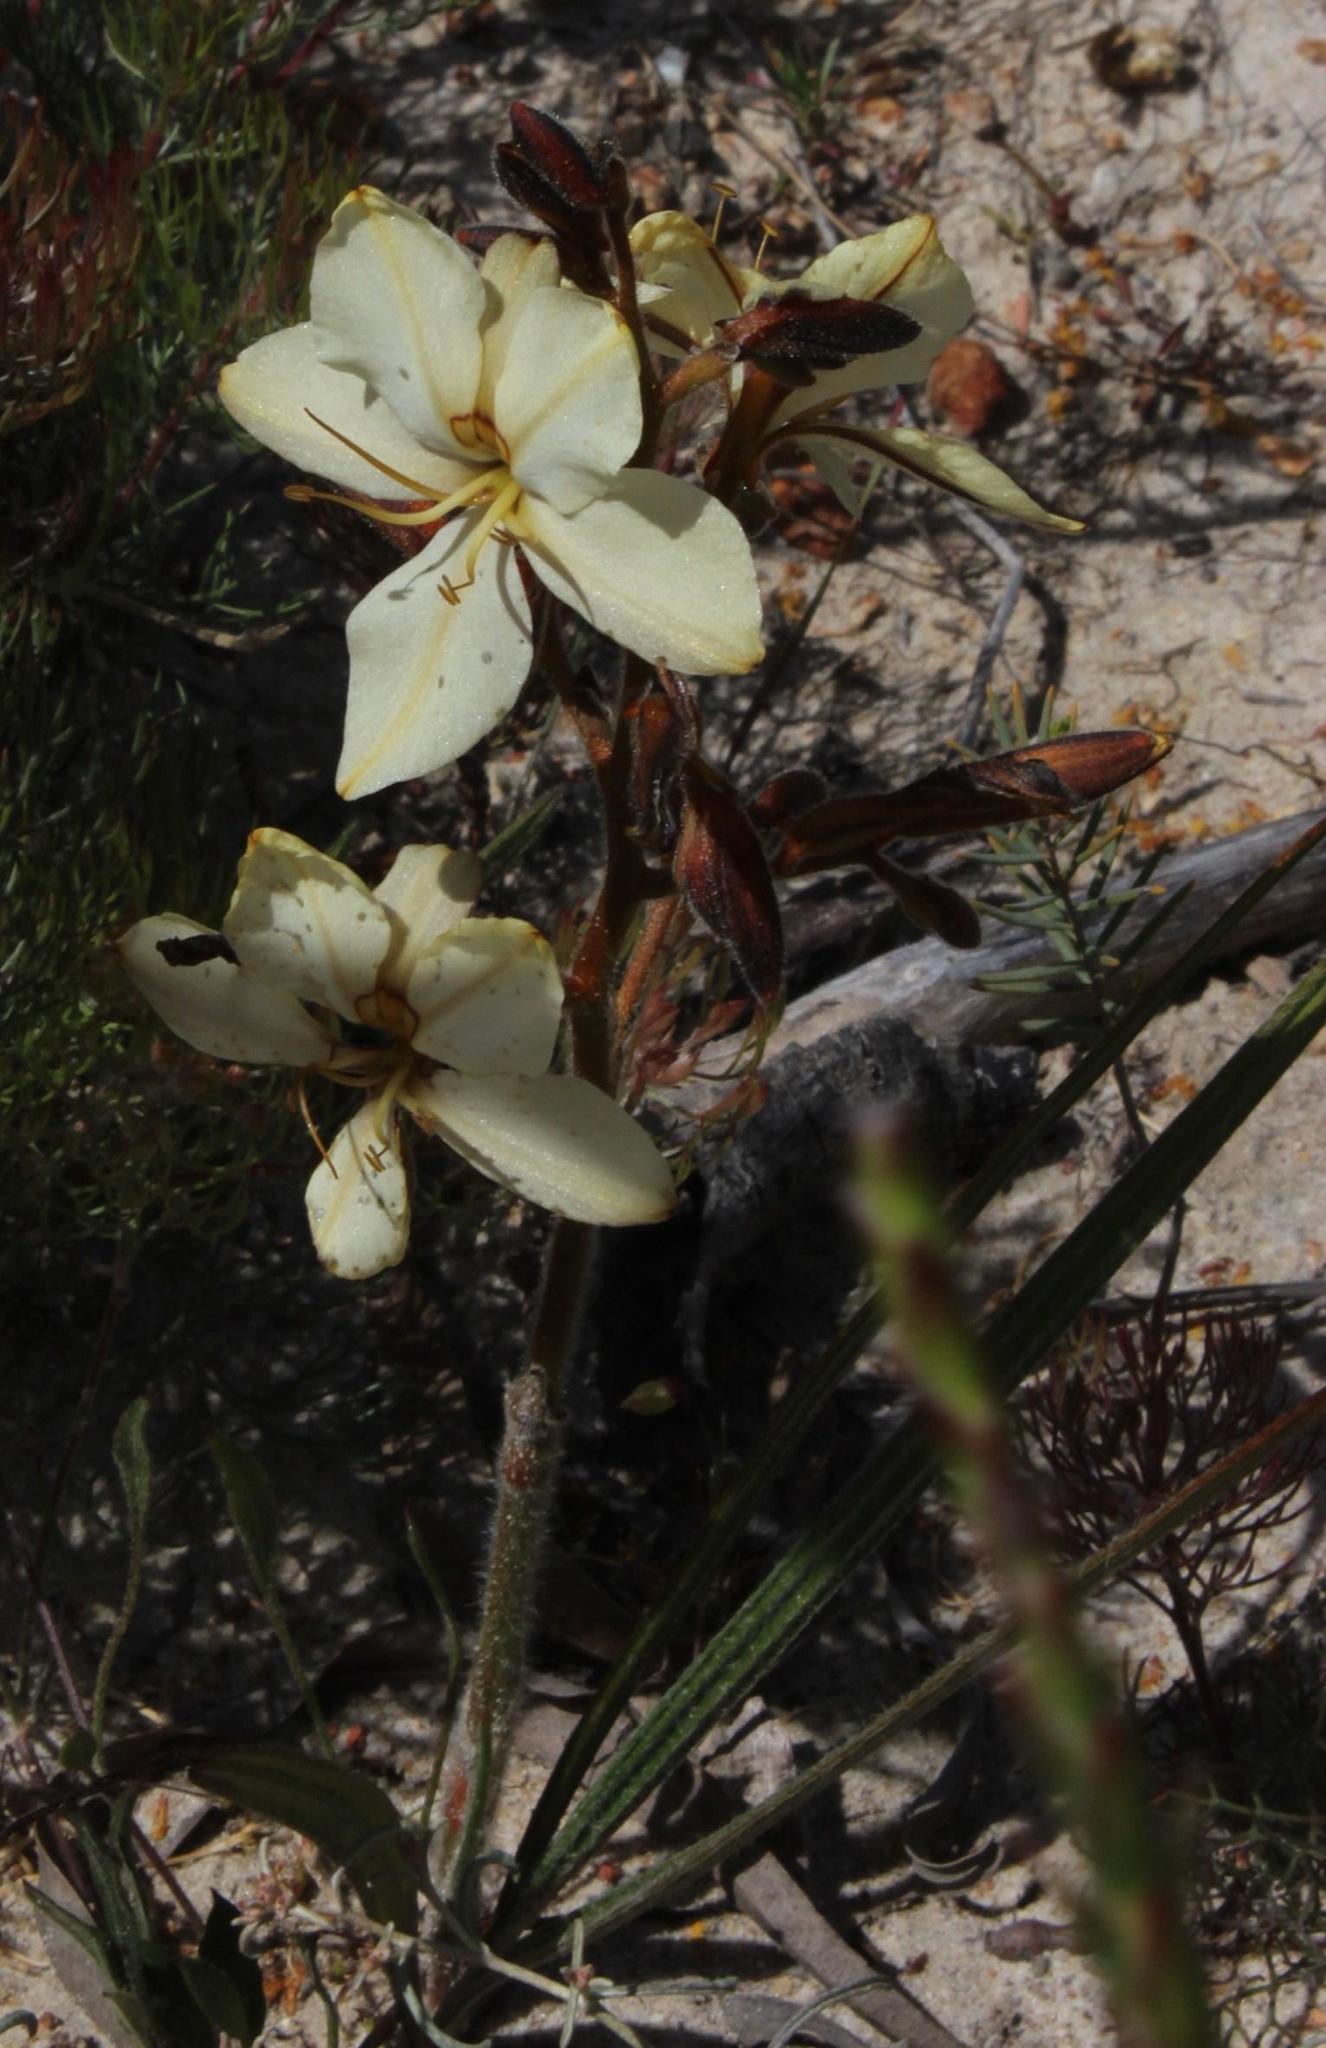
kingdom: Plantae
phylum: Tracheophyta
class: Liliopsida
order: Commelinales
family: Haemodoraceae
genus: Wachendorfia
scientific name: Wachendorfia paniculata
